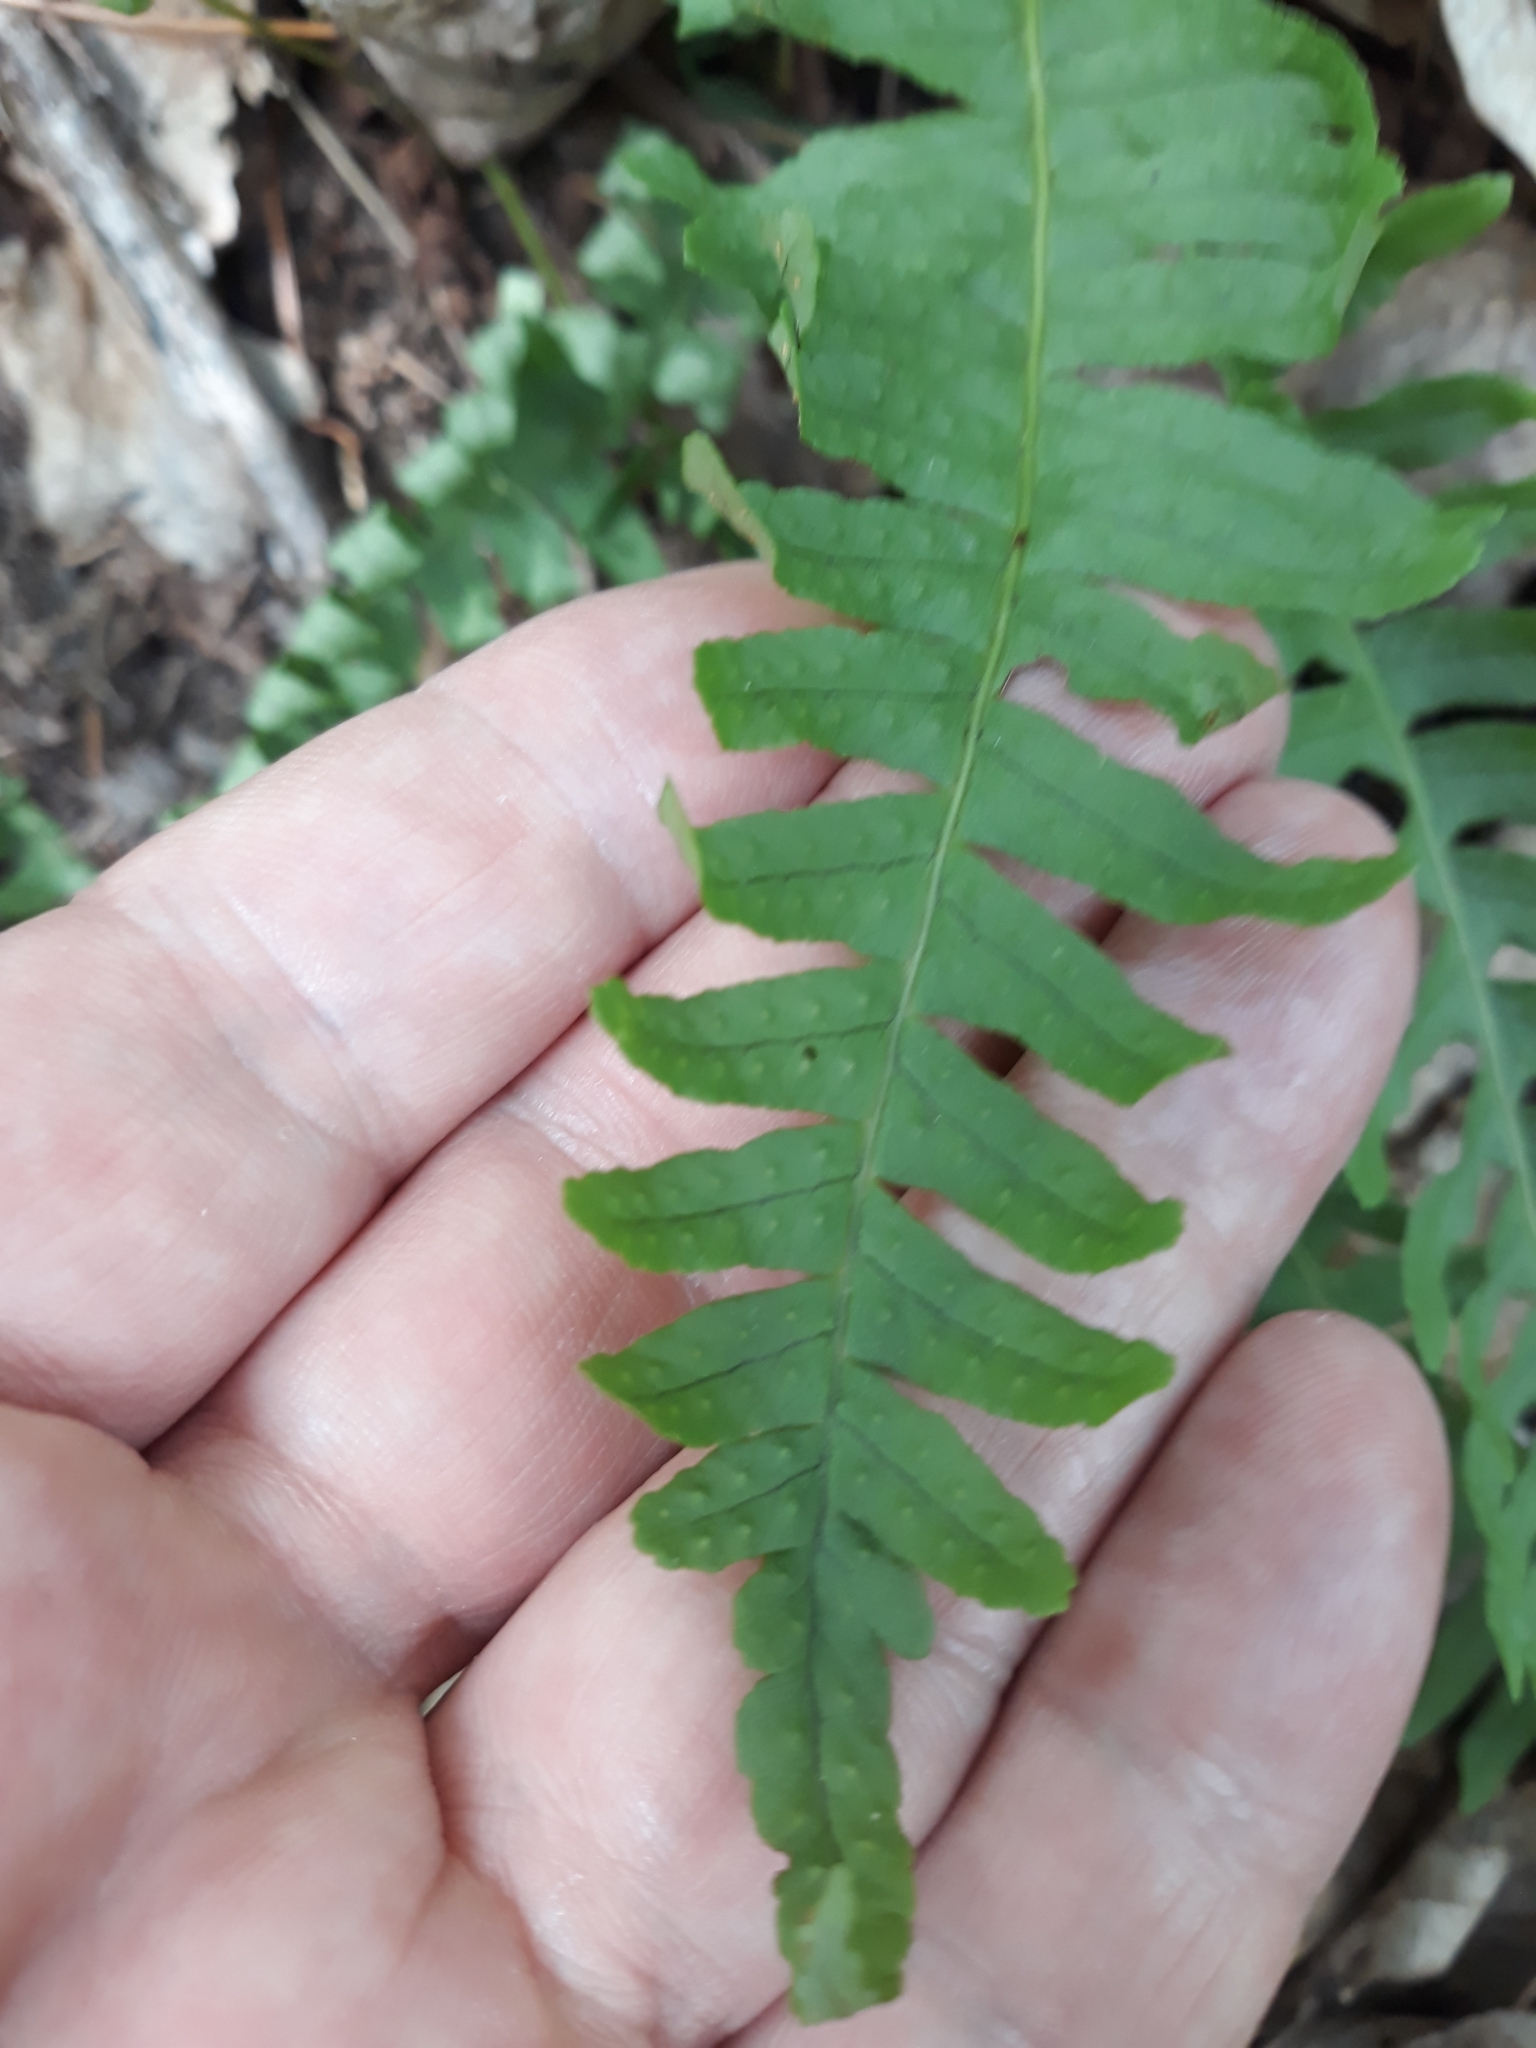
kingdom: Plantae
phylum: Tracheophyta
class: Polypodiopsida
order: Polypodiales
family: Dryopteridaceae
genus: Dryopteris
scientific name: Dryopteris filix-mas
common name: Male fern
